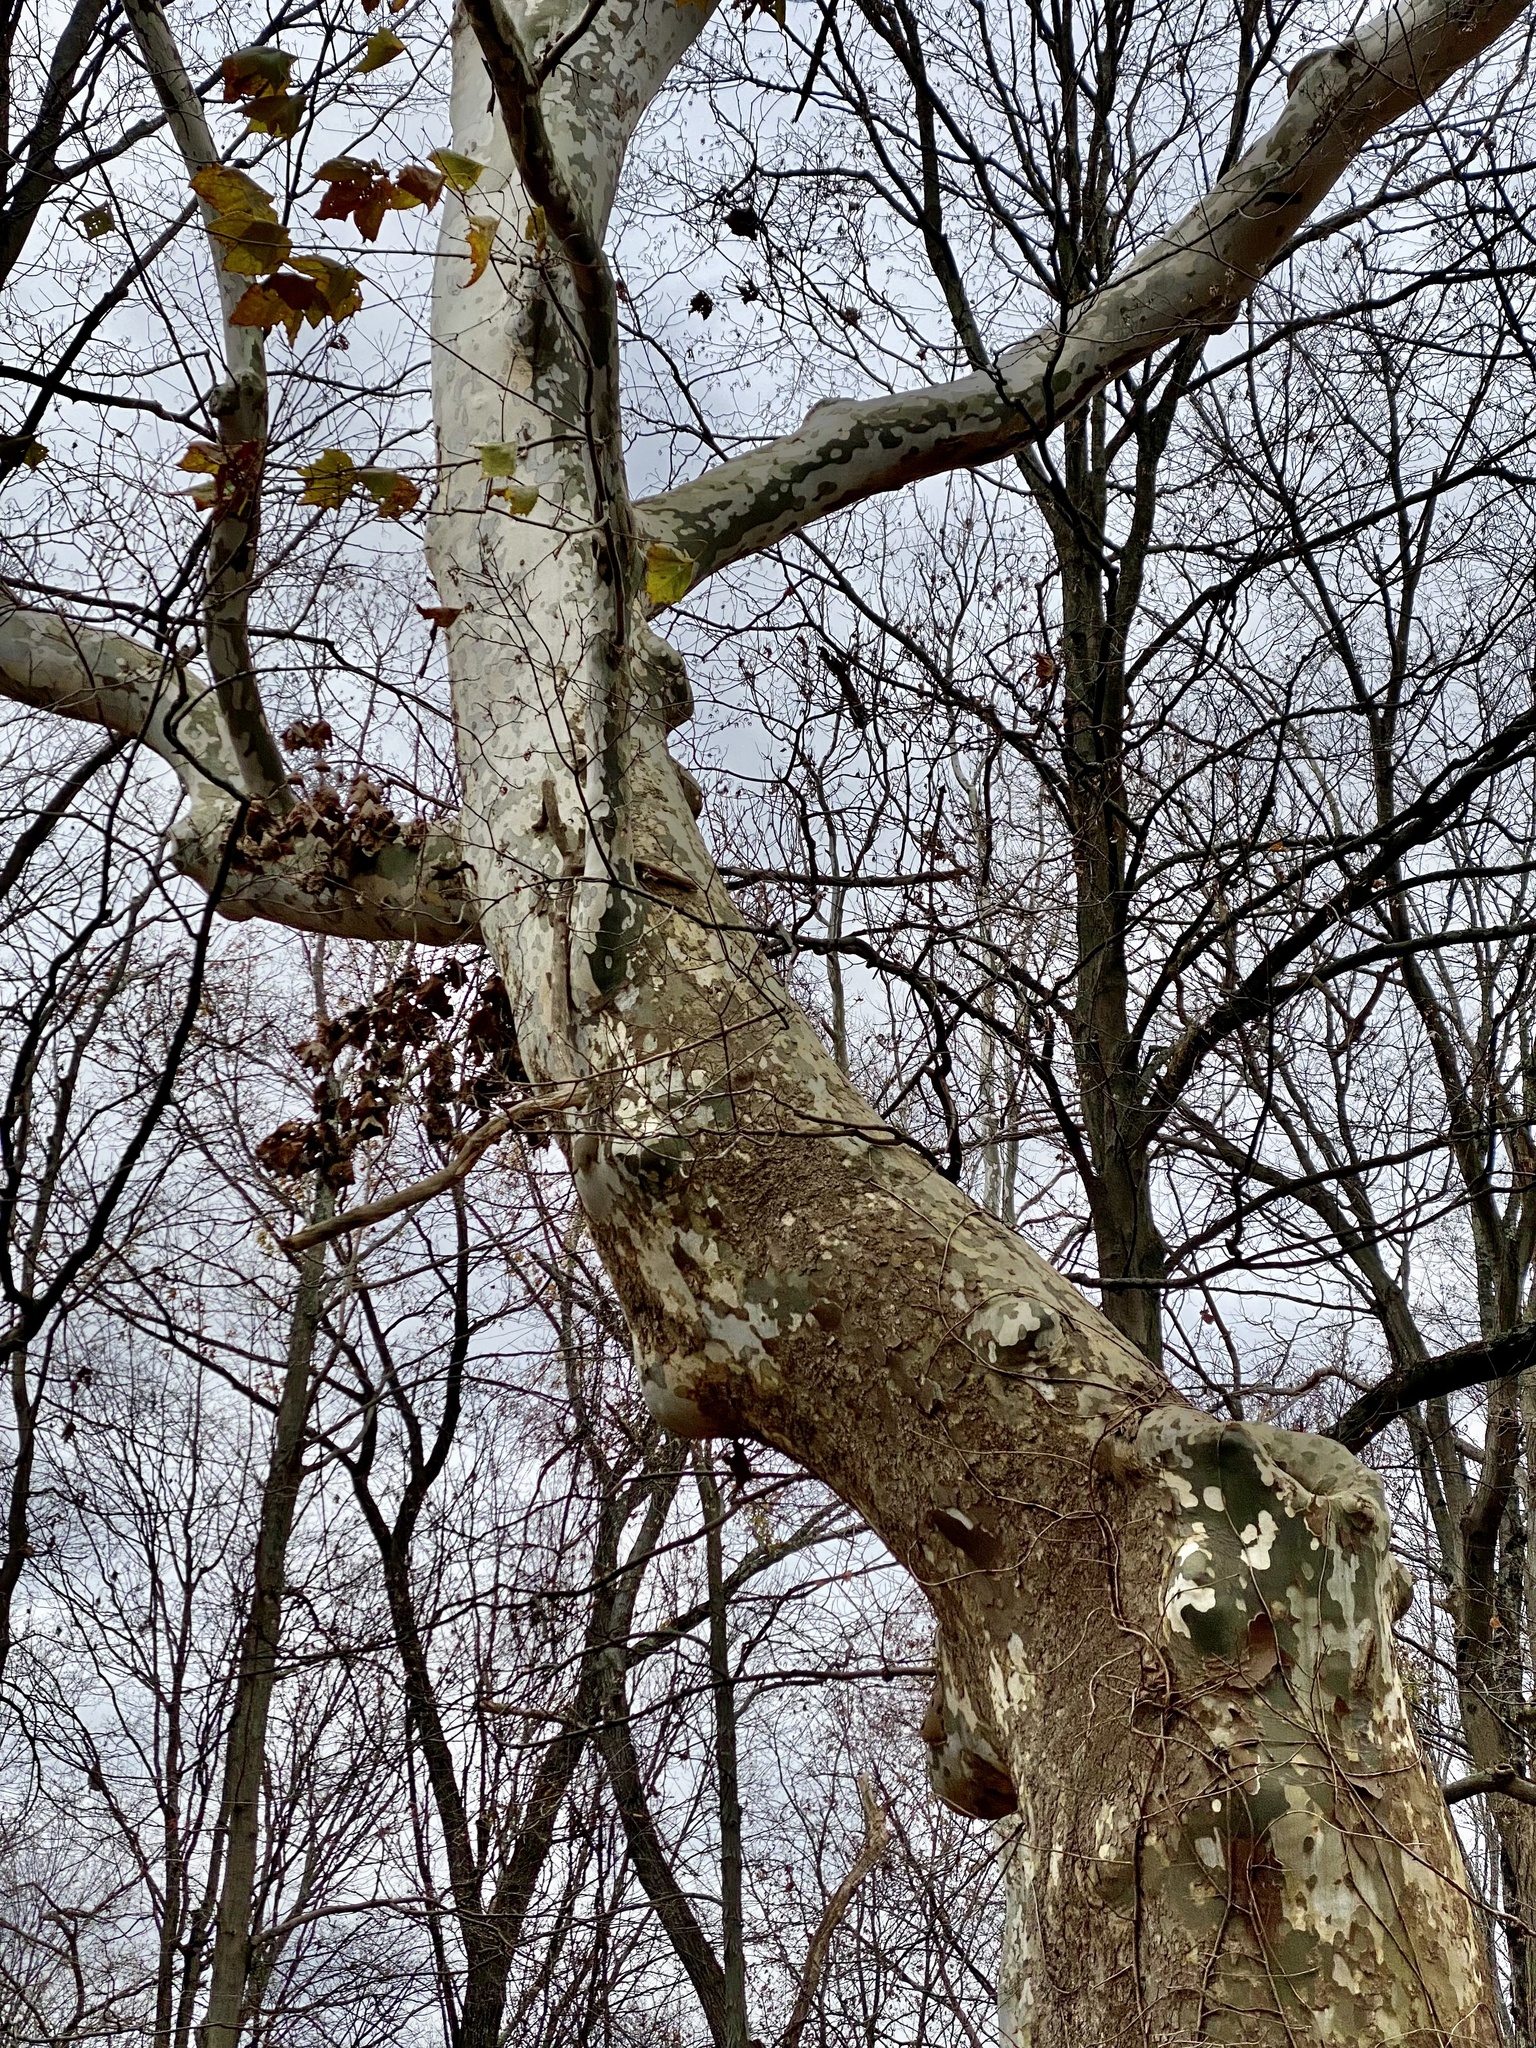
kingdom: Plantae
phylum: Tracheophyta
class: Magnoliopsida
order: Proteales
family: Platanaceae
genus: Platanus
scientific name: Platanus occidentalis
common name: American sycamore
